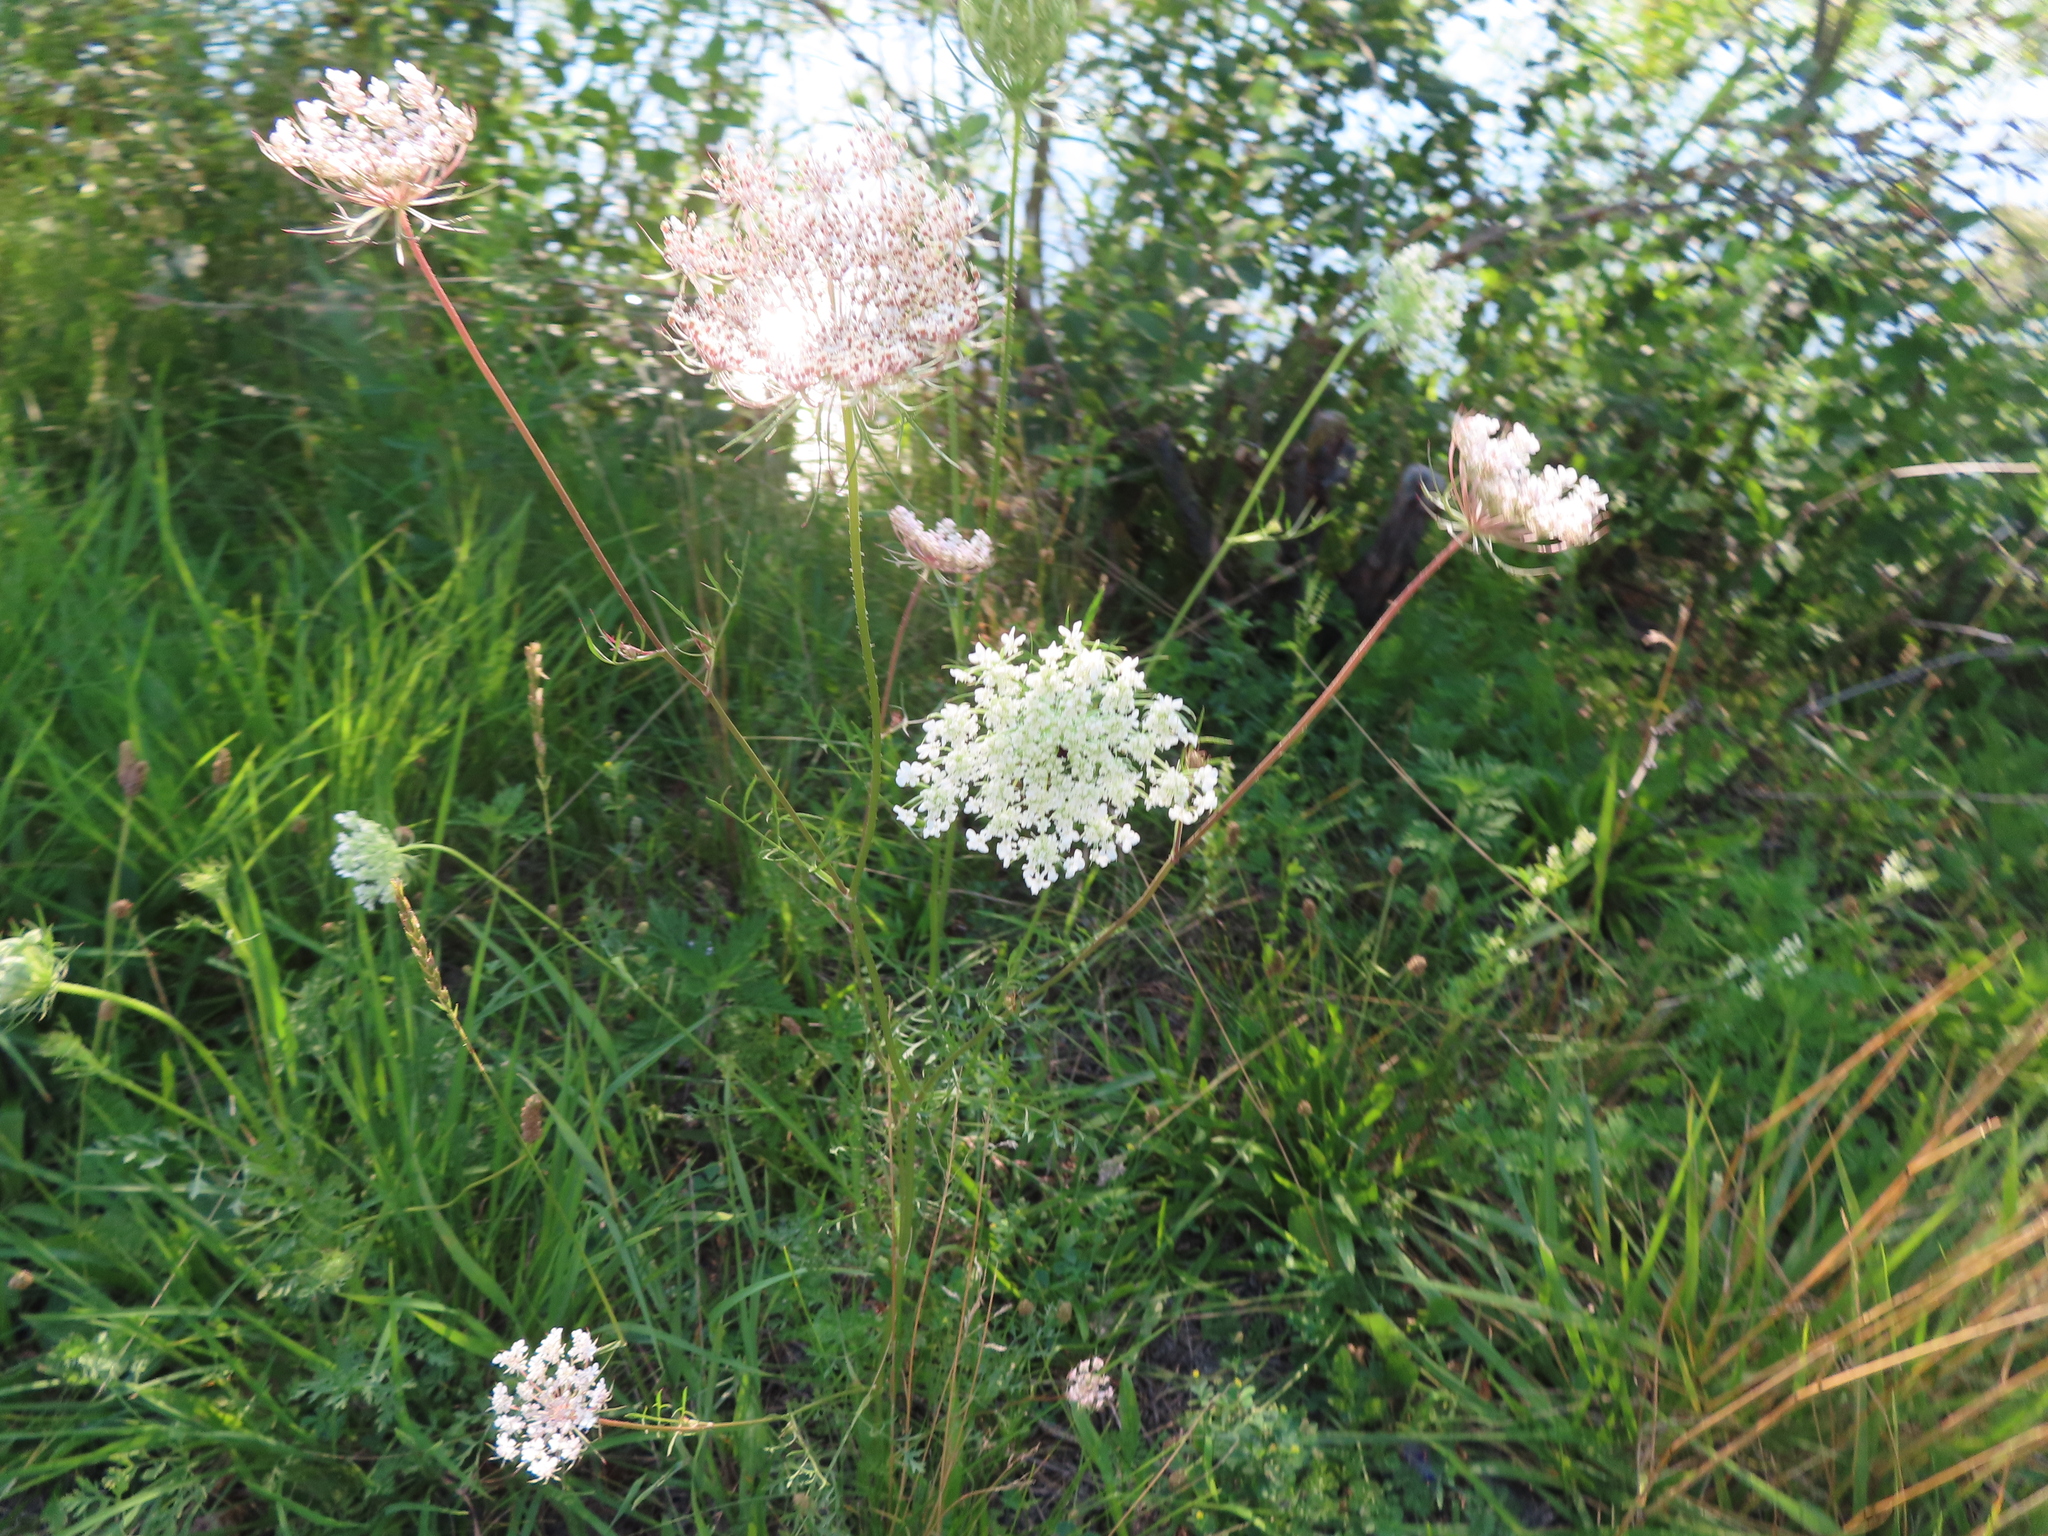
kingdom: Plantae
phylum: Tracheophyta
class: Magnoliopsida
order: Apiales
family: Apiaceae
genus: Daucus
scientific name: Daucus carota
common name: Wild carrot
